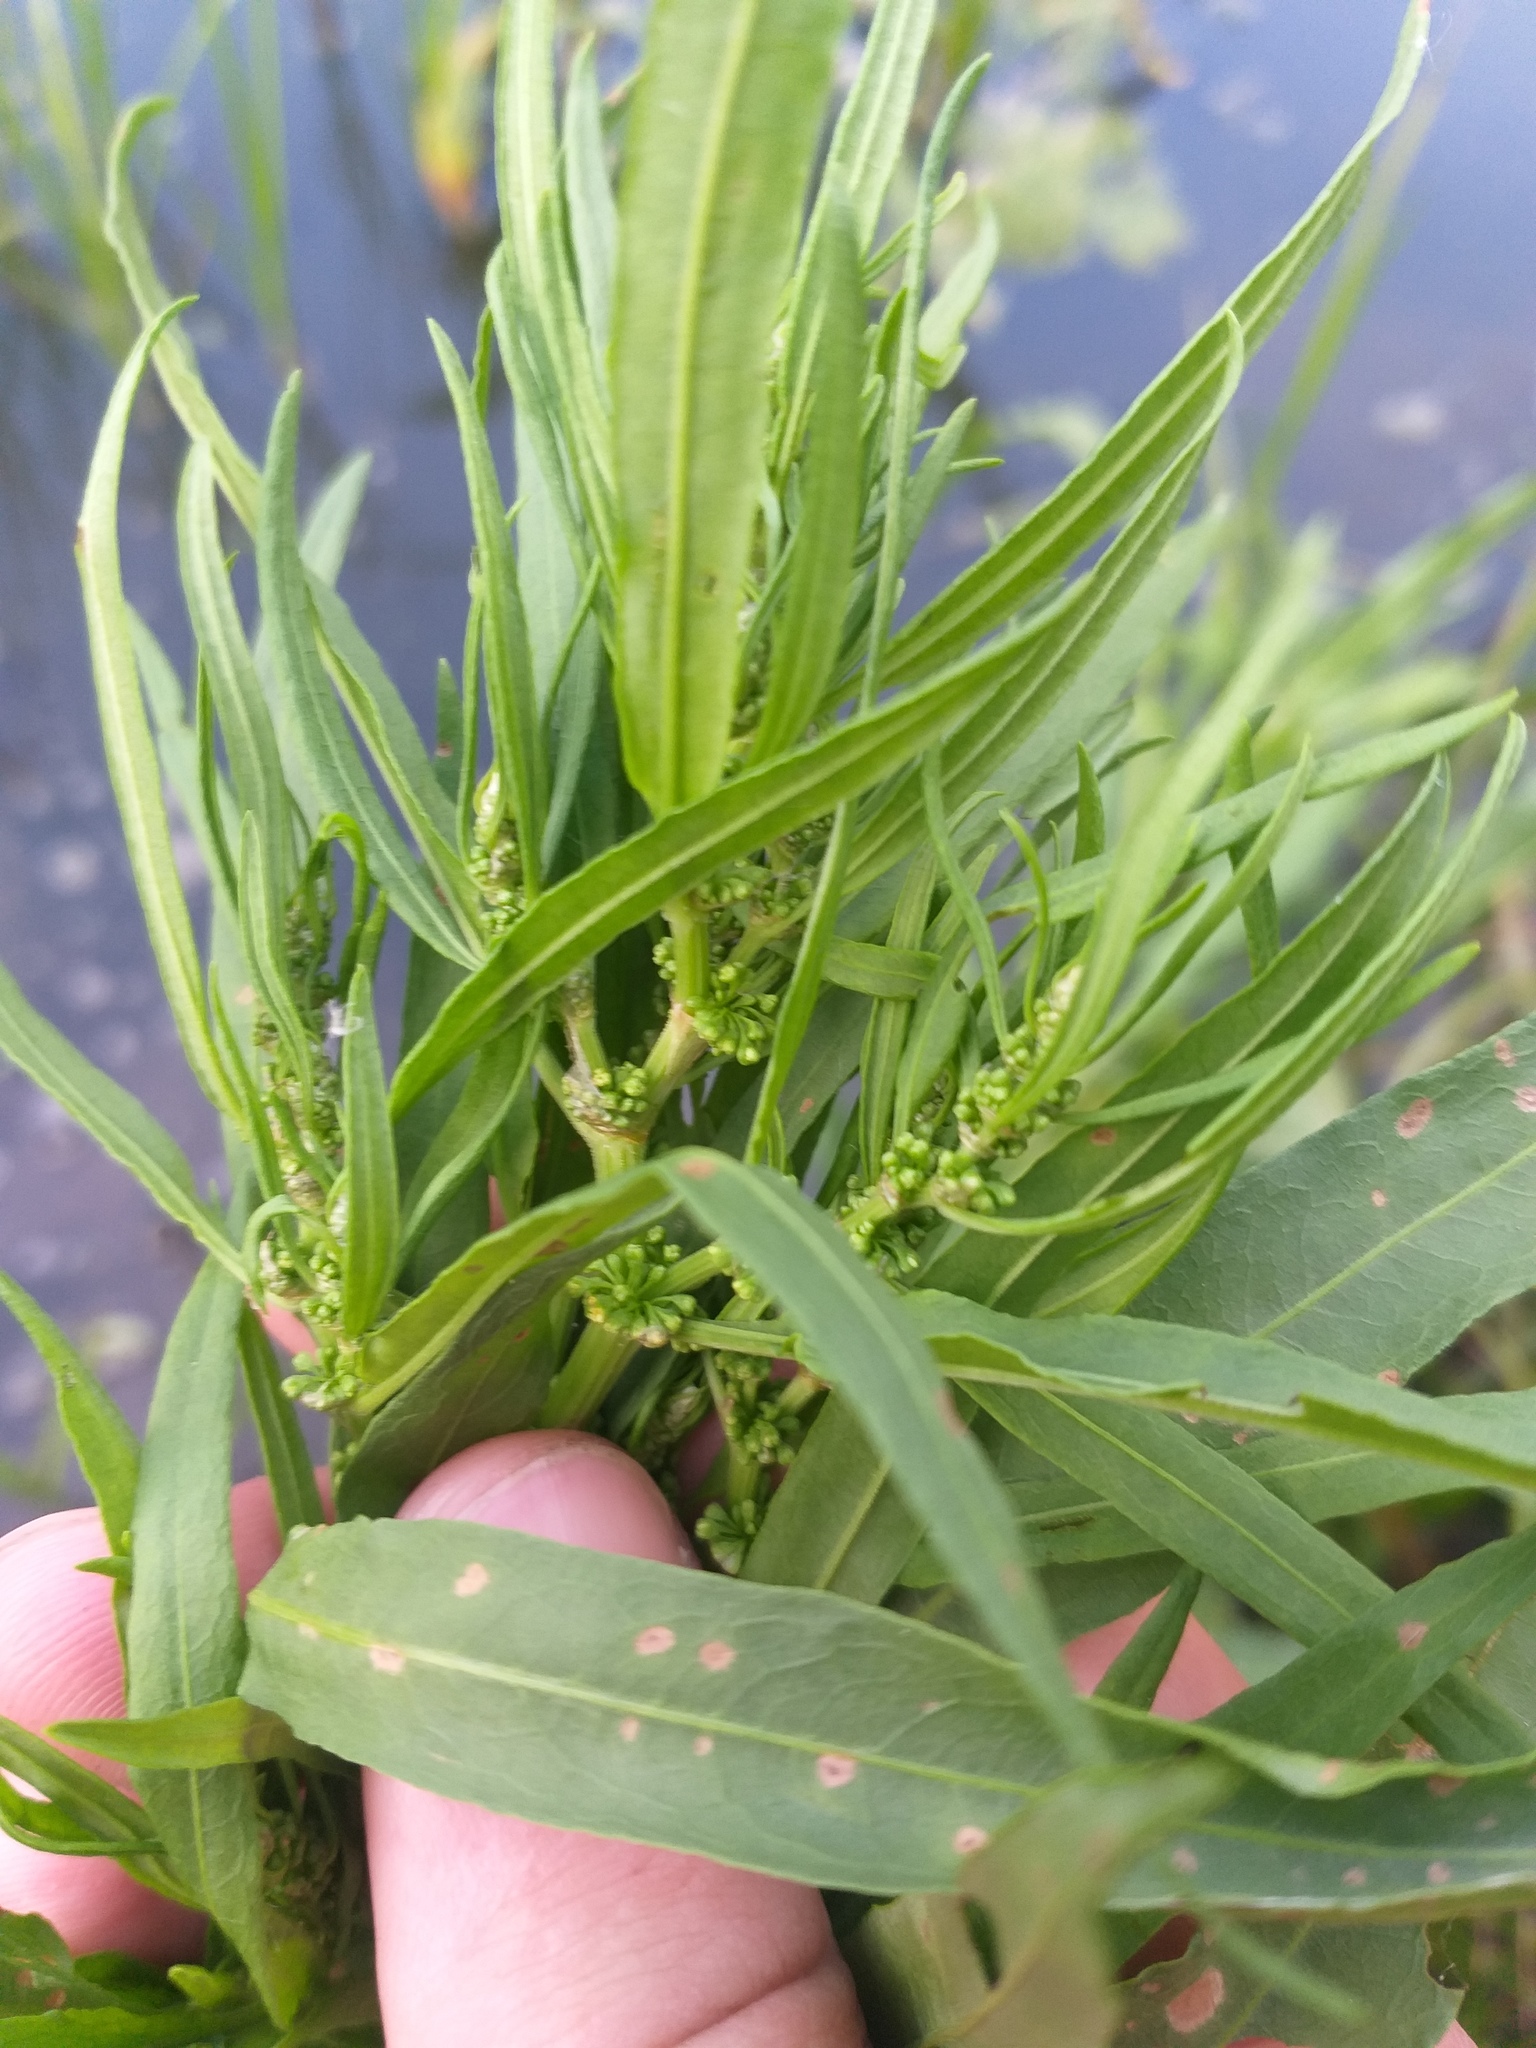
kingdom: Plantae
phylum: Tracheophyta
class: Magnoliopsida
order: Caryophyllales
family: Polygonaceae
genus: Rumex
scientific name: Rumex maritimus
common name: Golden dock
